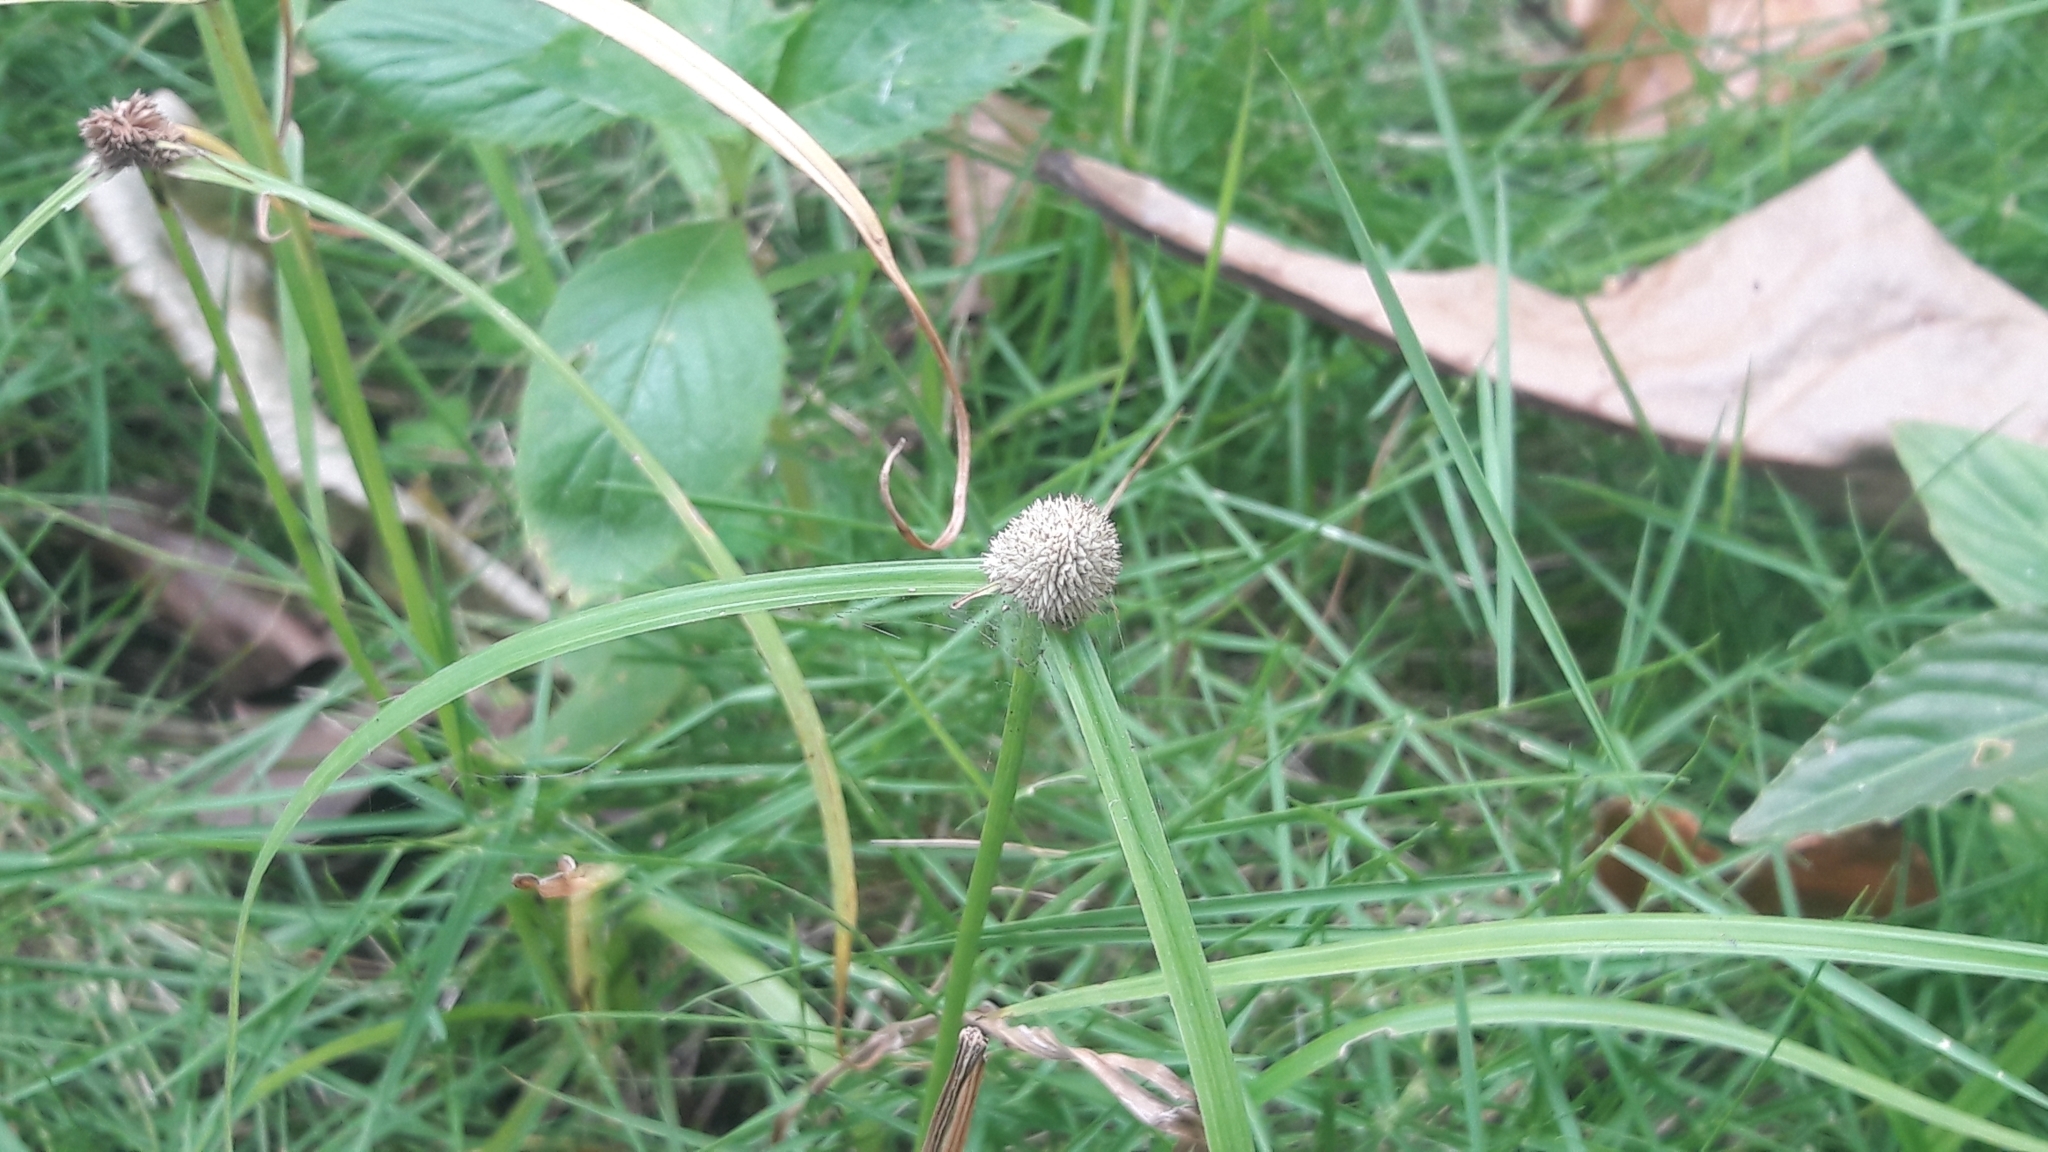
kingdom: Plantae
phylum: Tracheophyta
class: Liliopsida
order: Poales
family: Cyperaceae
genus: Cyperus
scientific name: Cyperus mindorensis
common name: Flatsedge
